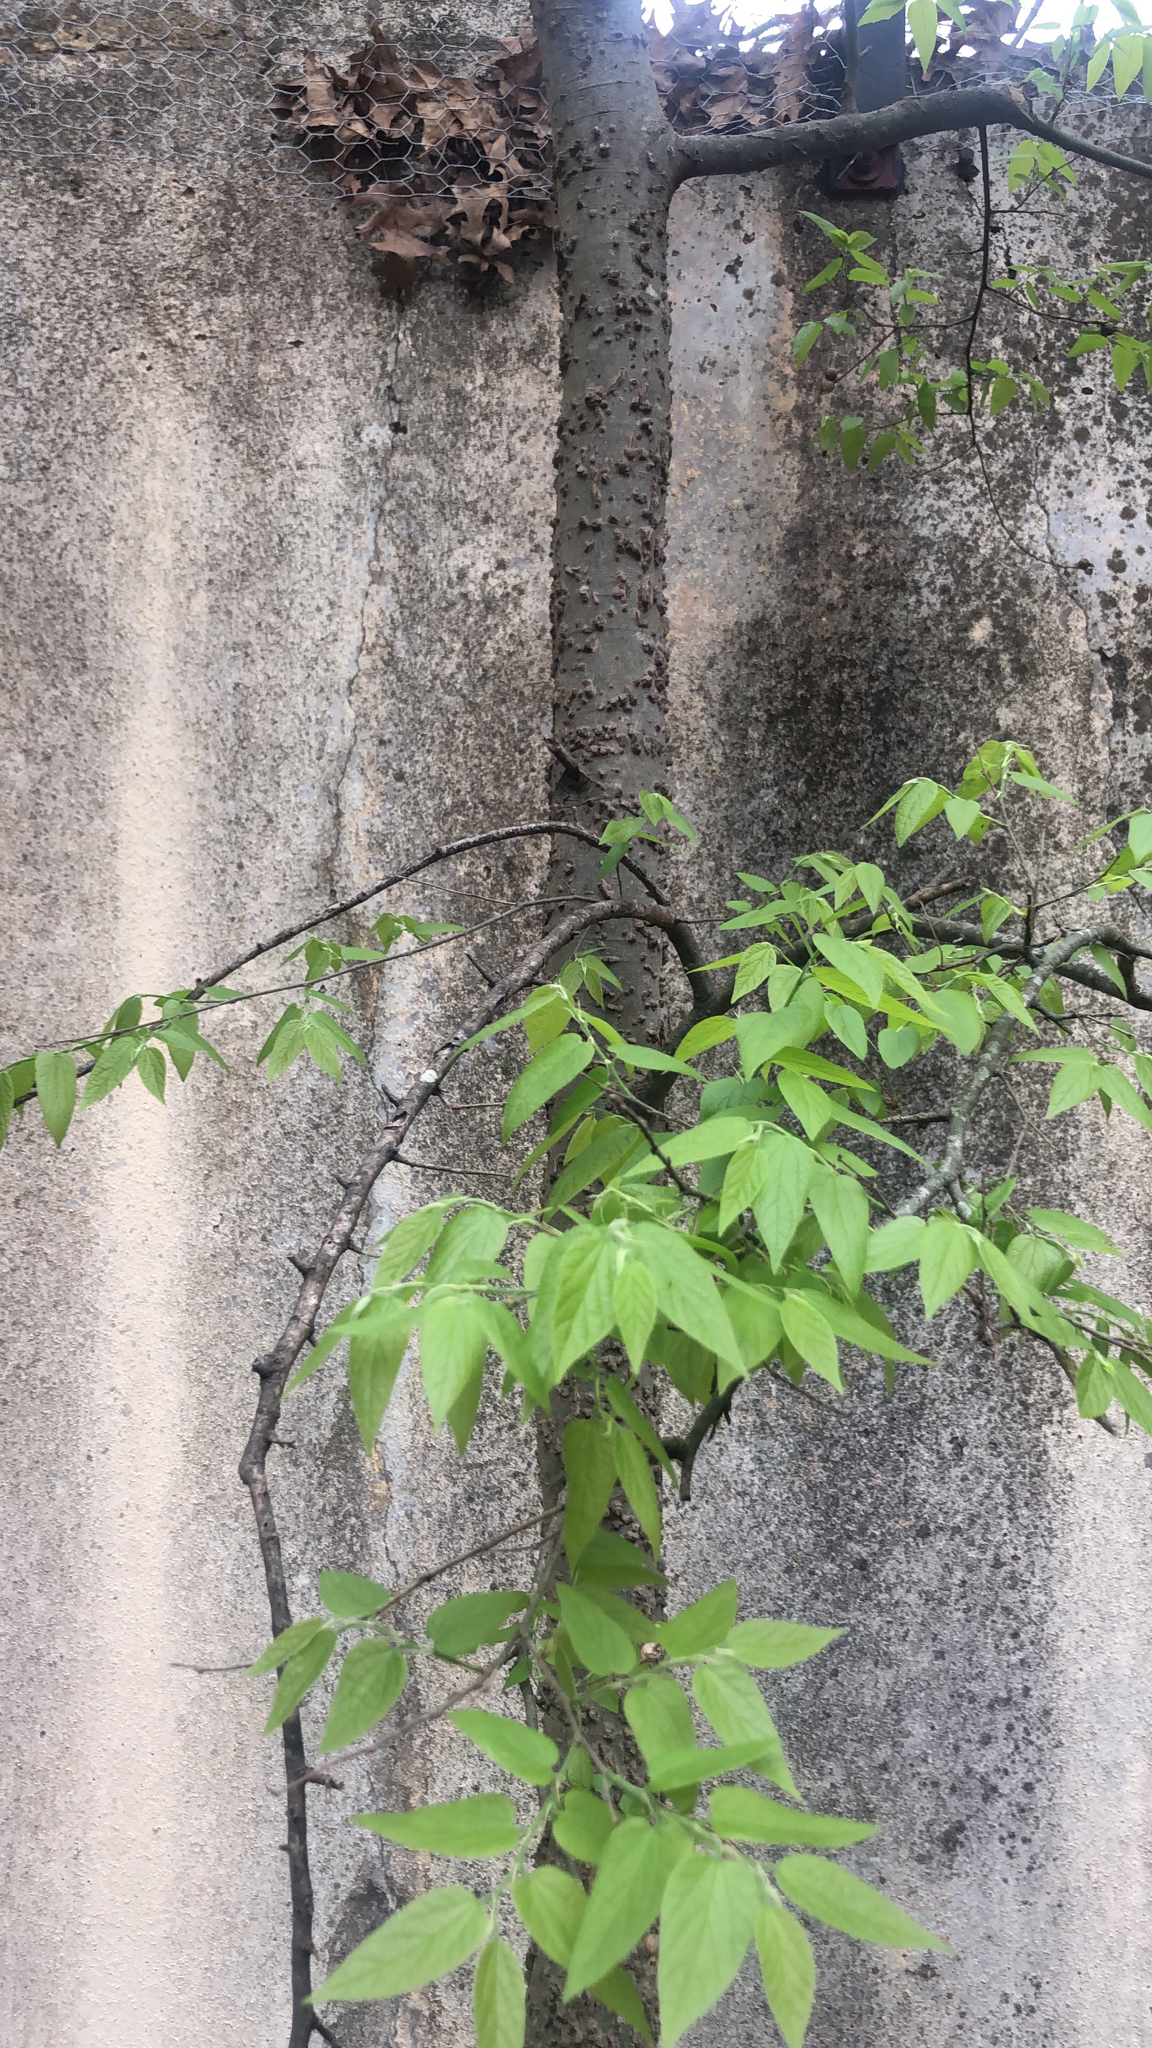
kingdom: Plantae
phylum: Tracheophyta
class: Magnoliopsida
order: Rosales
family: Cannabaceae
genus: Celtis
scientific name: Celtis laevigata
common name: Sugarberry
